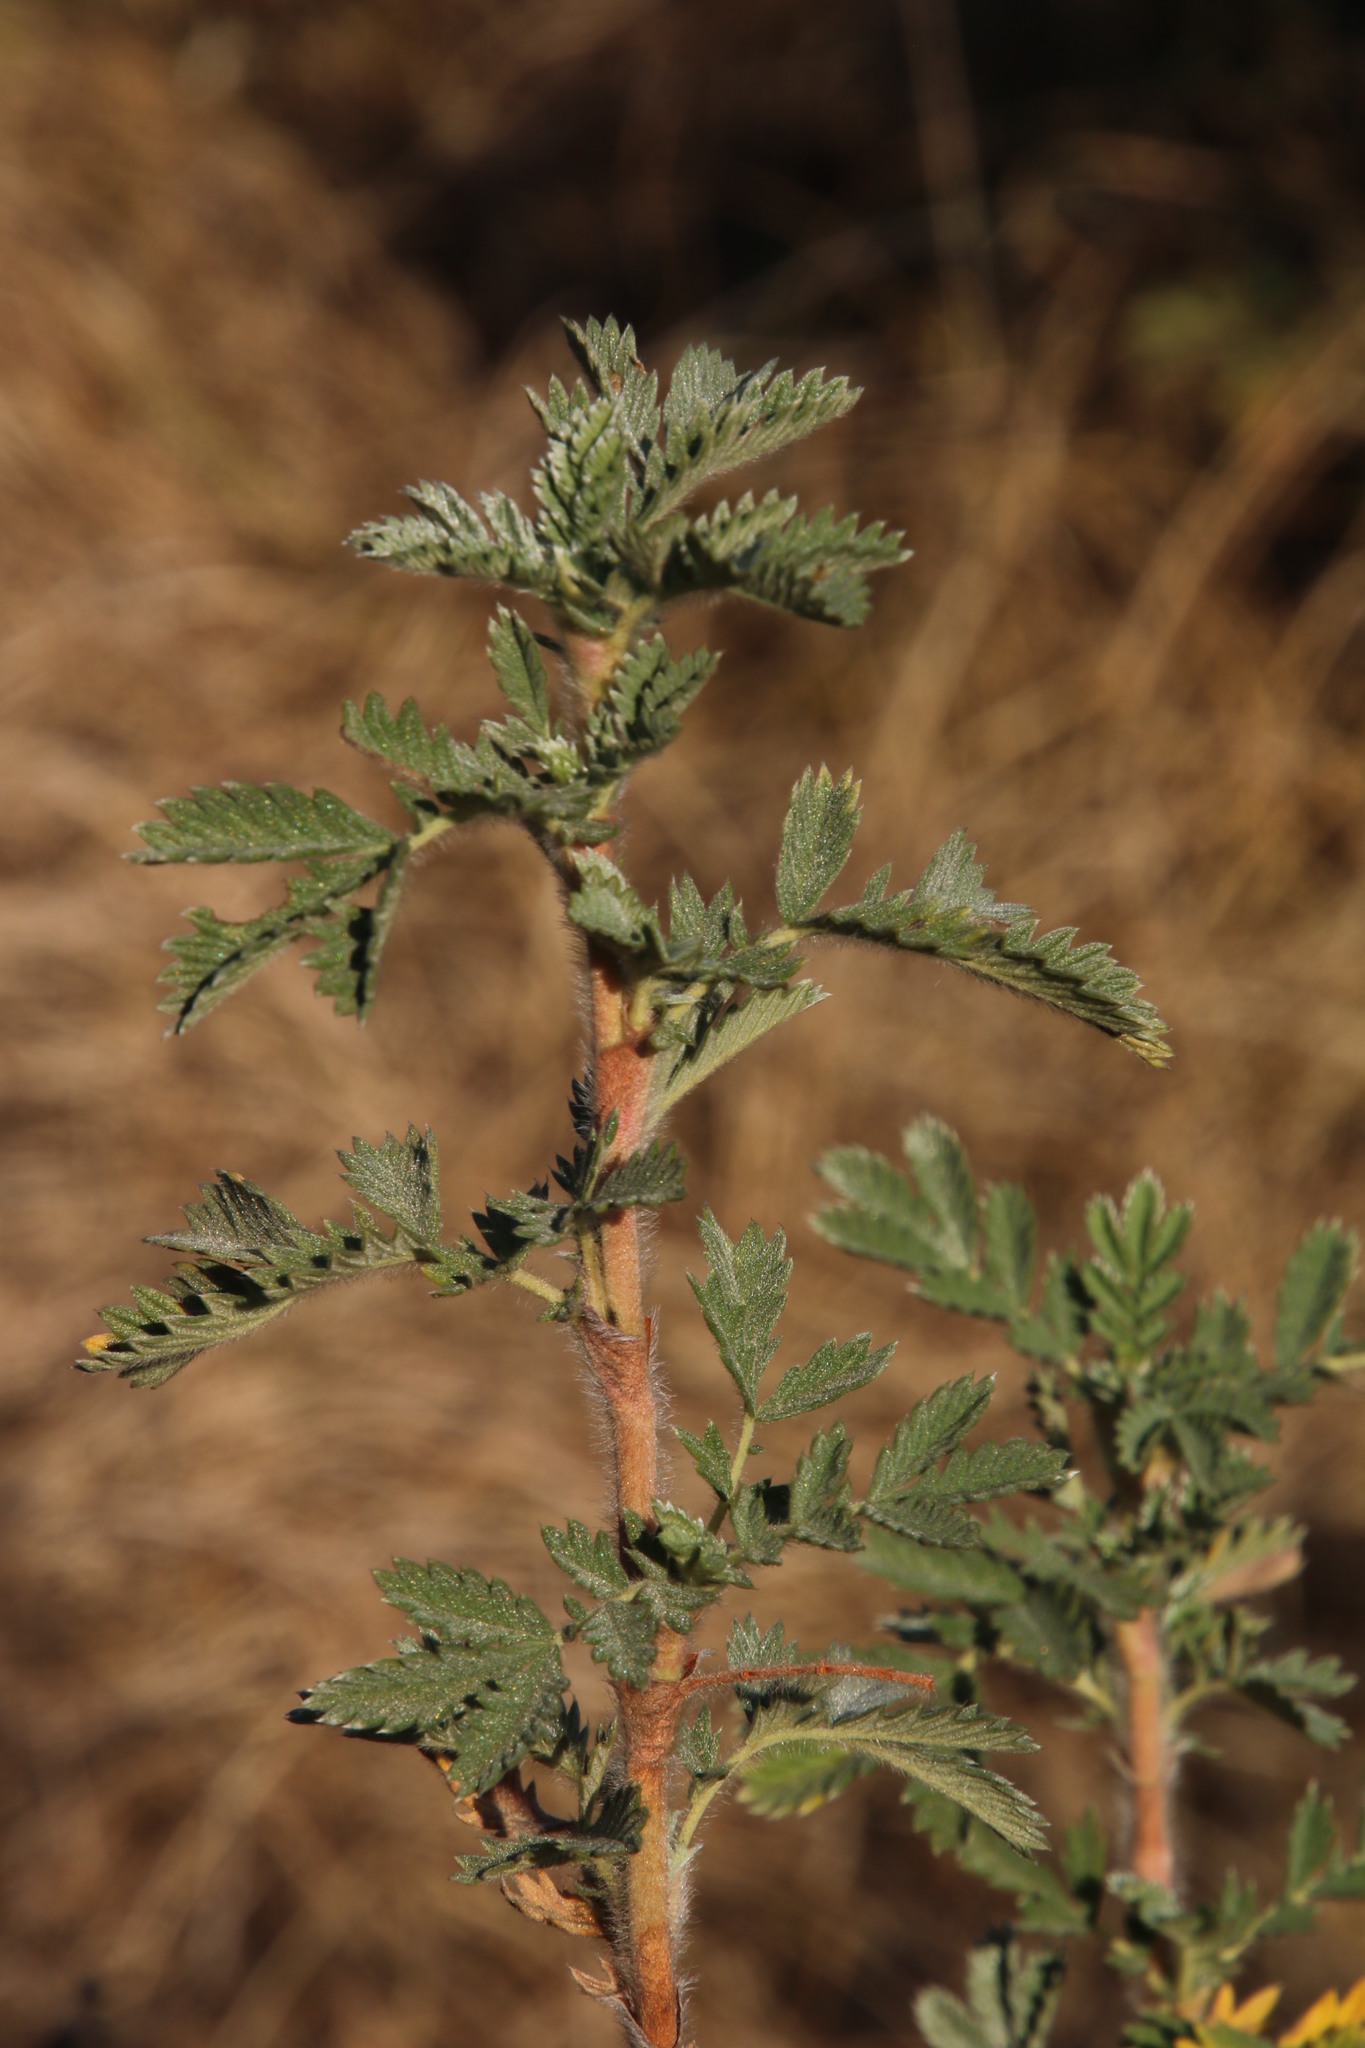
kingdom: Plantae
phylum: Tracheophyta
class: Magnoliopsida
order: Rosales
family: Rosaceae
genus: Leucosidea
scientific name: Leucosidea sericea
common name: Oldwood
